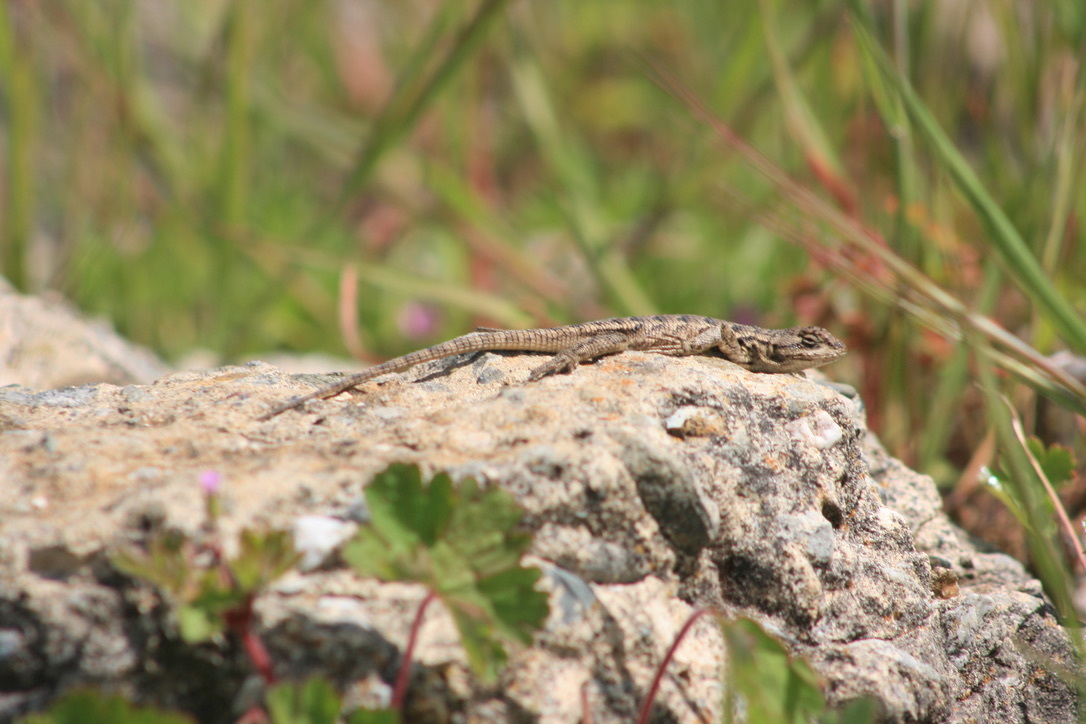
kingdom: Animalia
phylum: Chordata
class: Squamata
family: Phrynosomatidae
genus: Sceloporus
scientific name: Sceloporus occidentalis
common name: Western fence lizard
